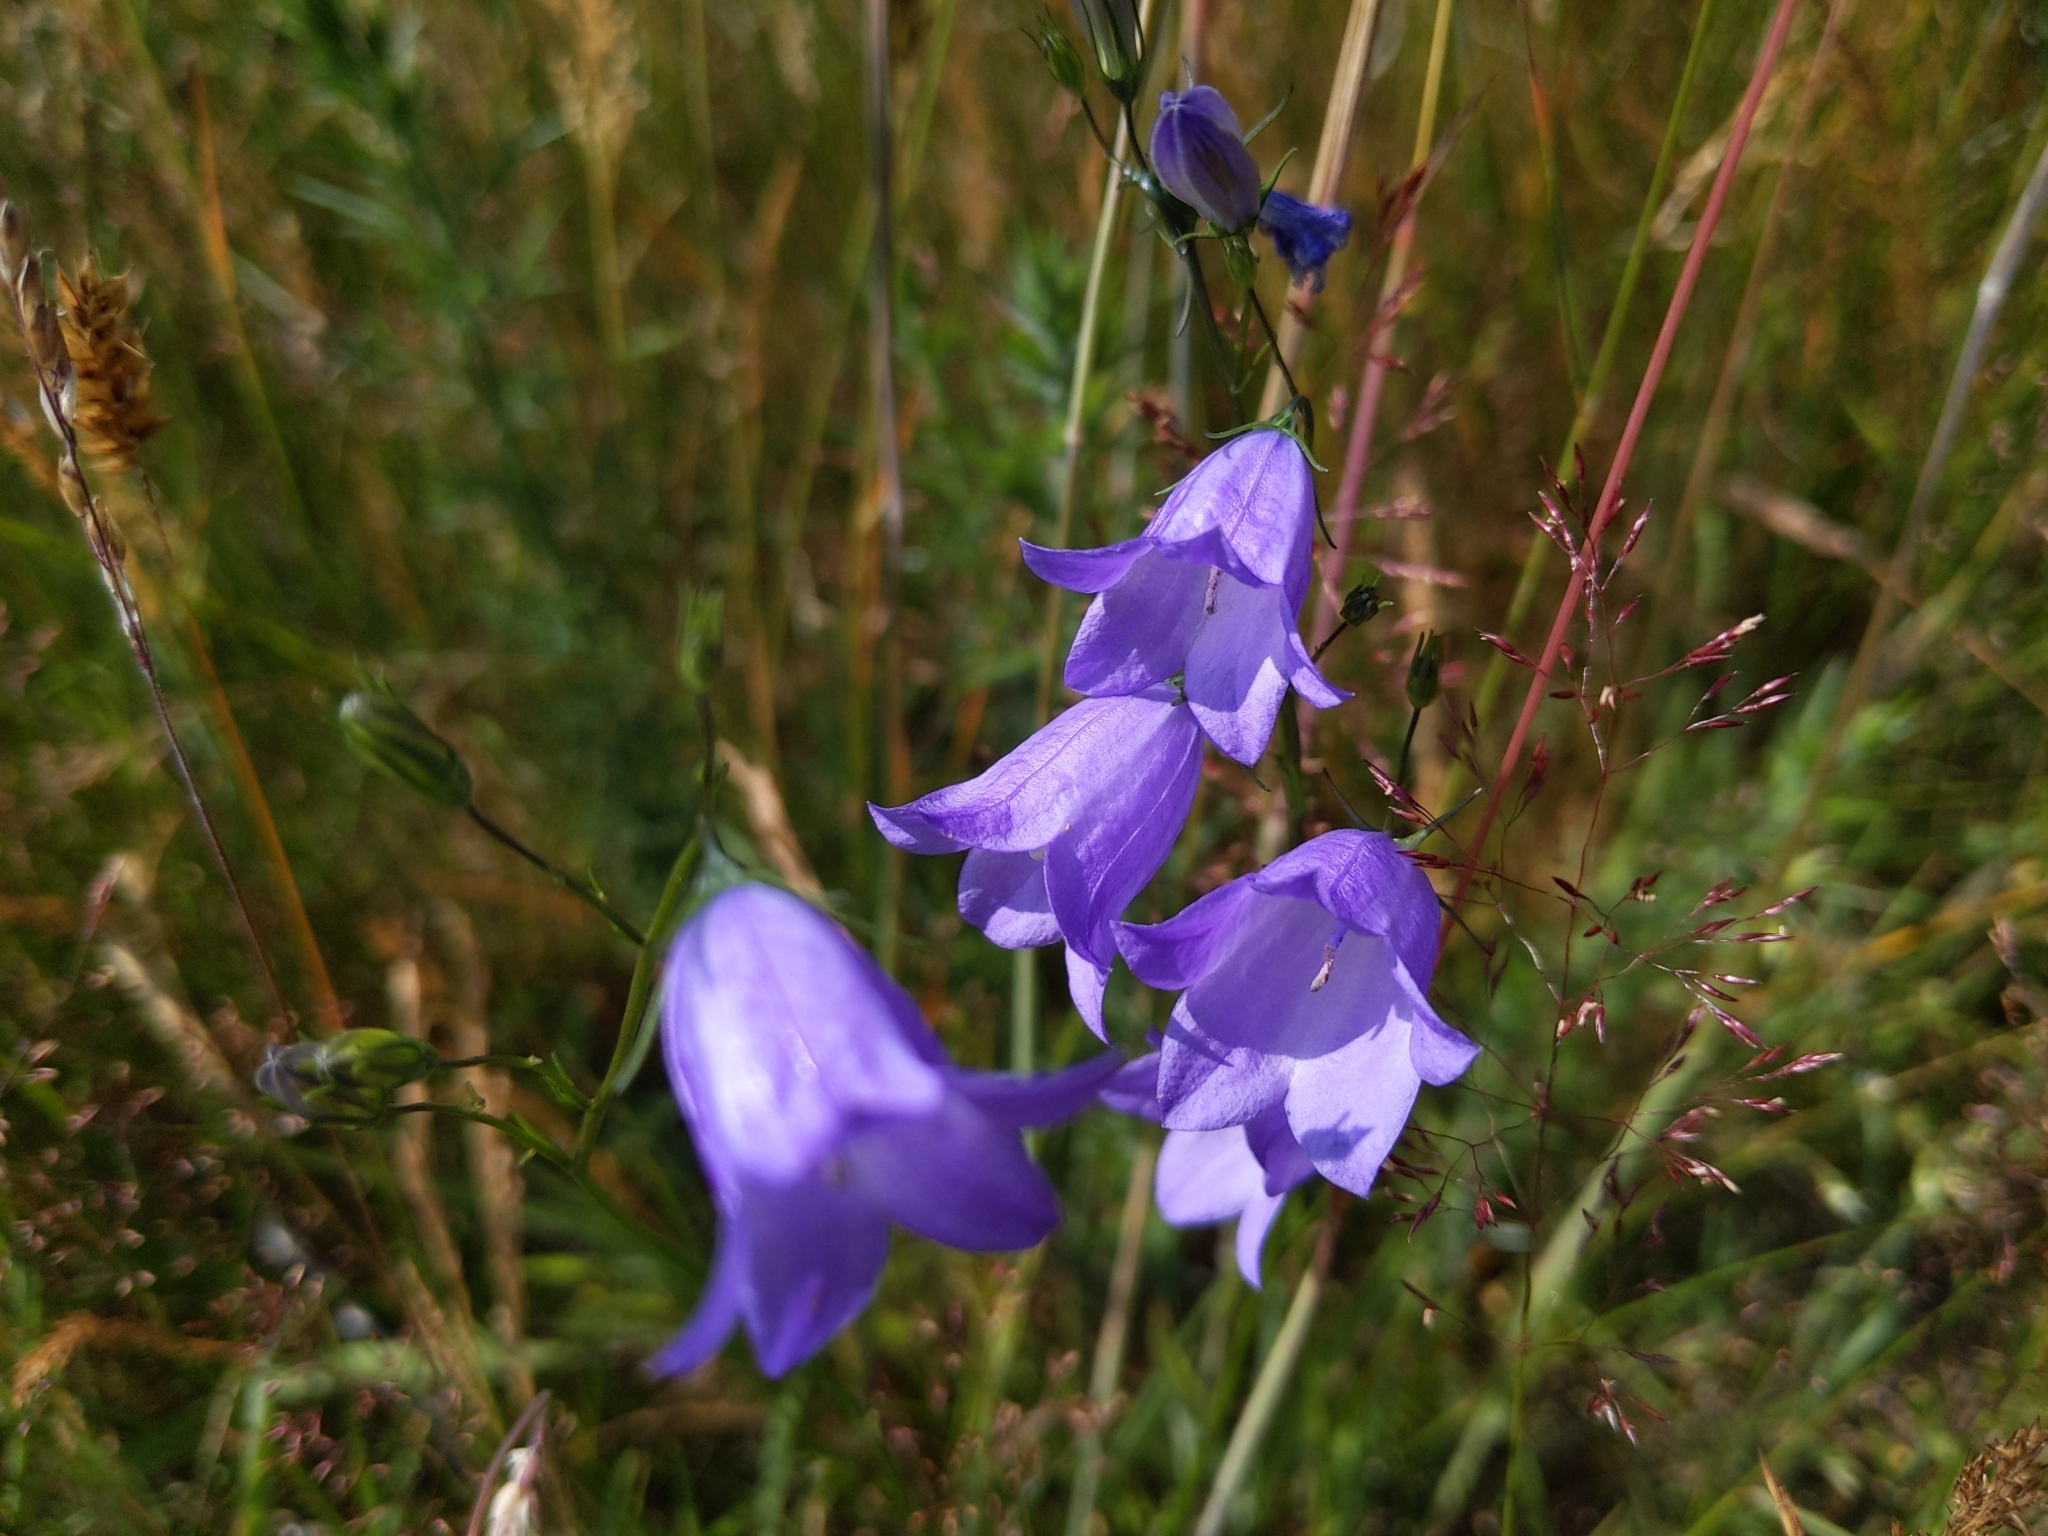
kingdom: Plantae
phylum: Tracheophyta
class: Magnoliopsida
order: Asterales
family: Campanulaceae
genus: Campanula
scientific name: Campanula rotundifolia
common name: Harebell
